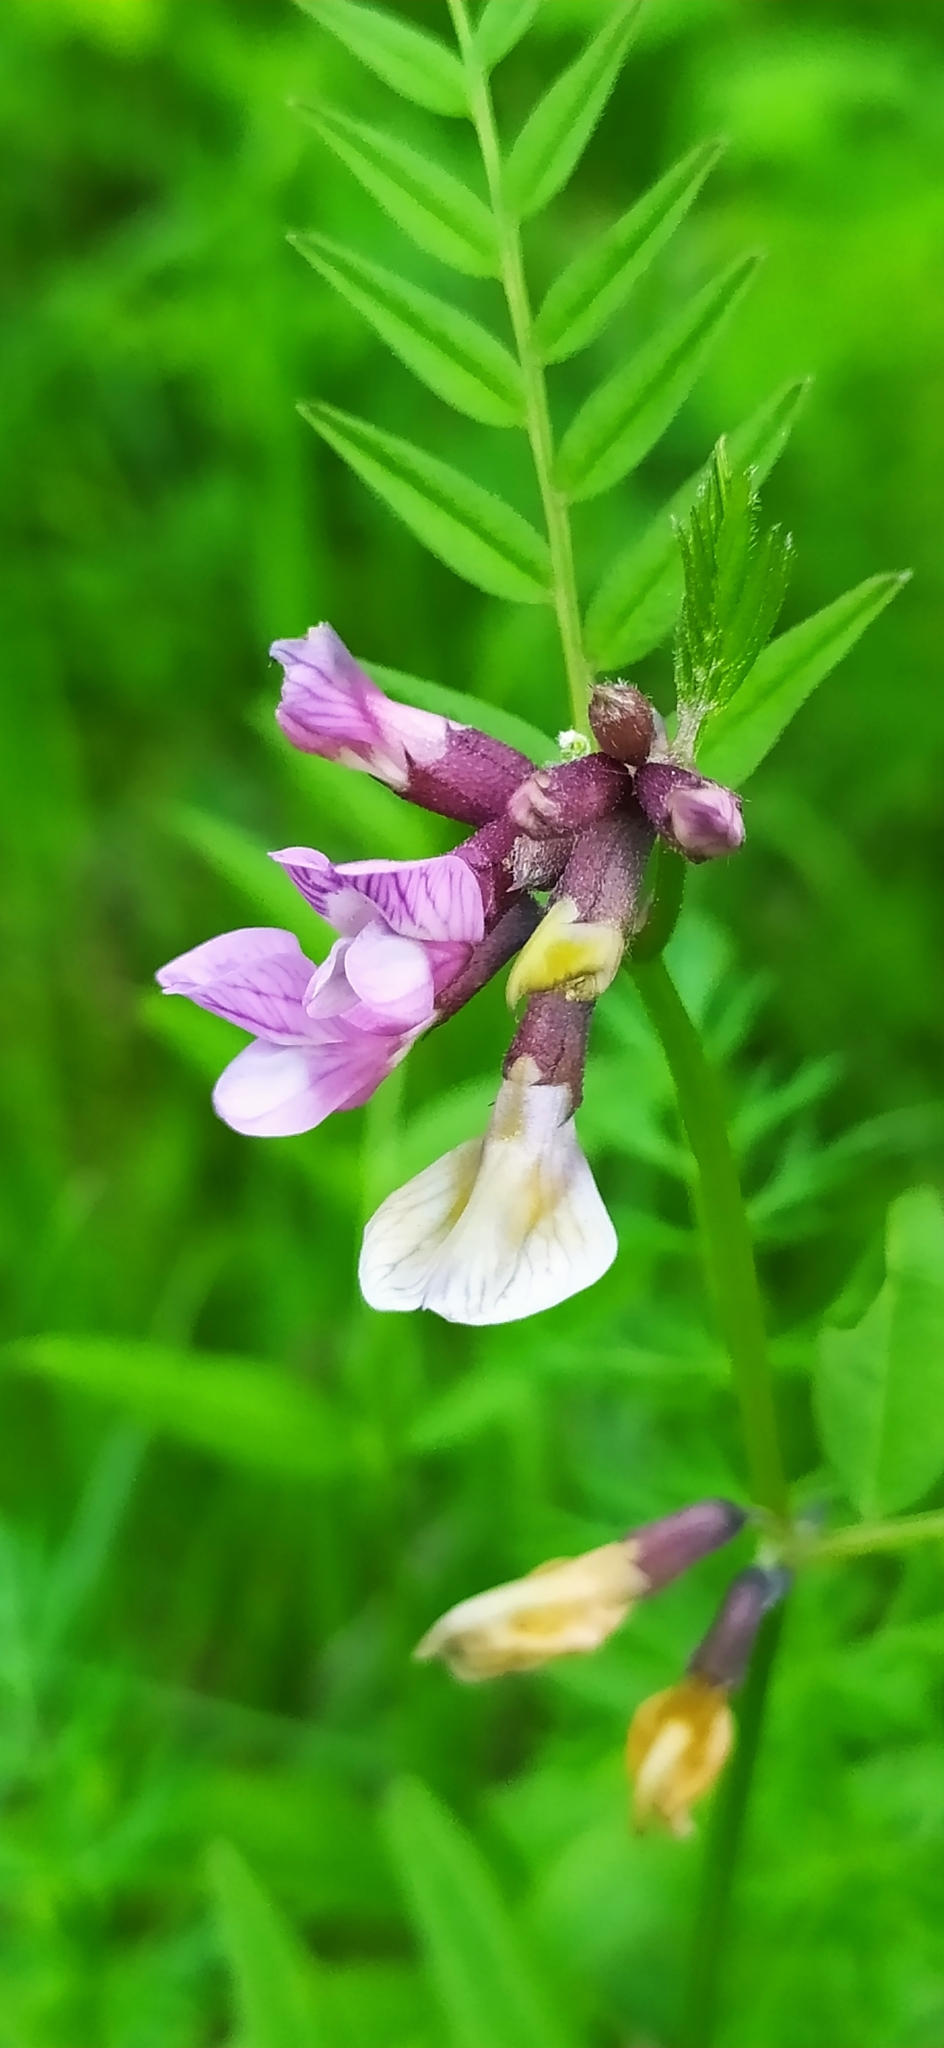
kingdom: Plantae
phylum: Tracheophyta
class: Magnoliopsida
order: Fabales
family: Fabaceae
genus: Vicia
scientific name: Vicia sepium
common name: Bush vetch
